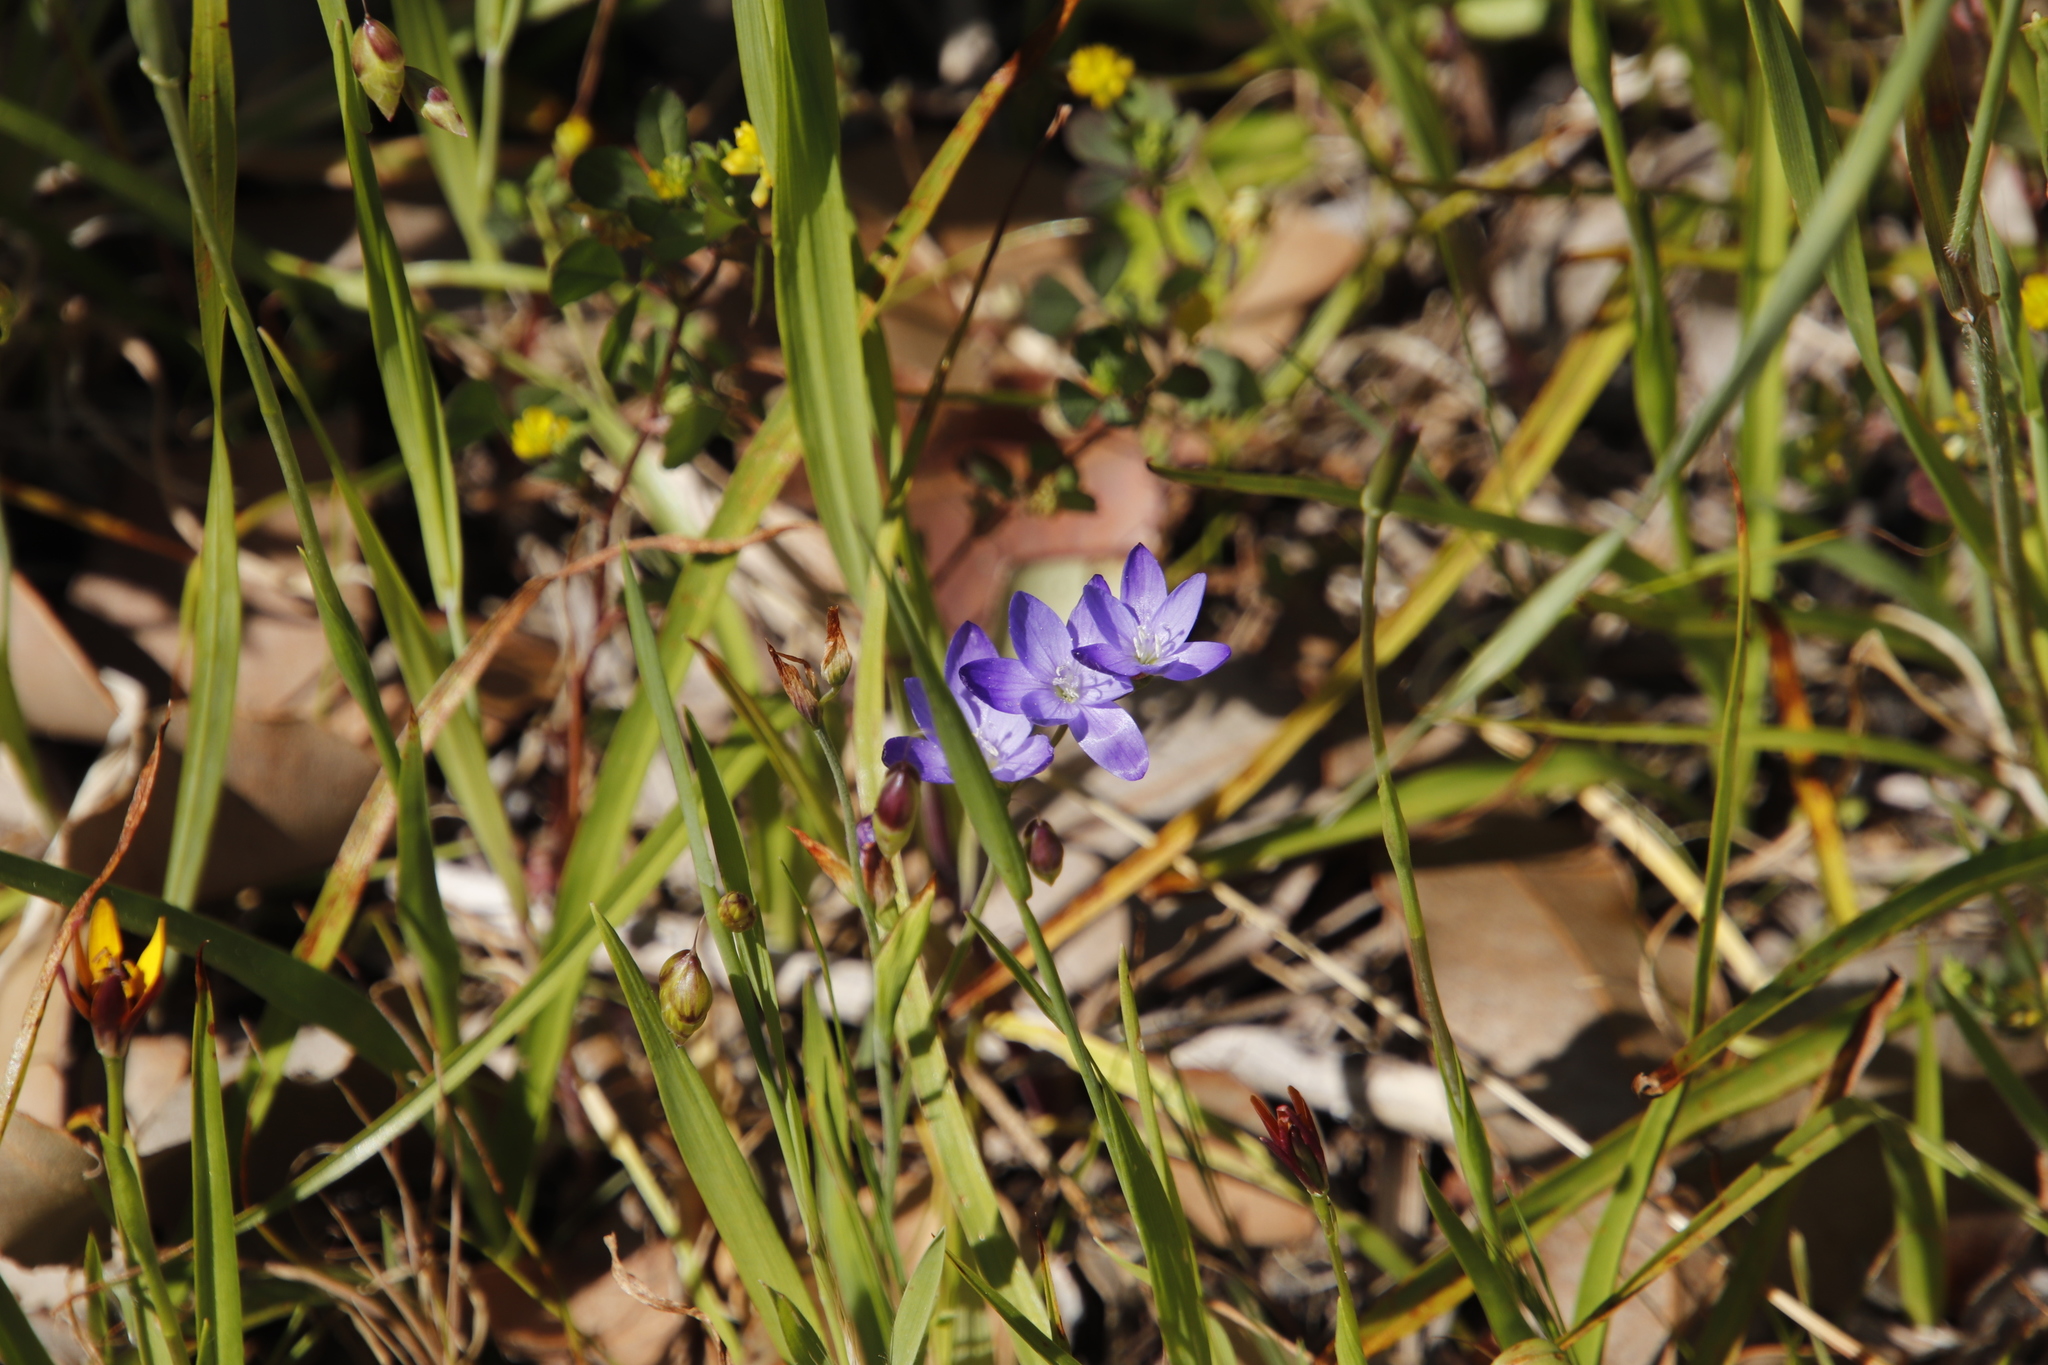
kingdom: Plantae
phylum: Tracheophyta
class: Liliopsida
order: Asparagales
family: Iridaceae
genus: Geissorhiza
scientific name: Geissorhiza aspera
